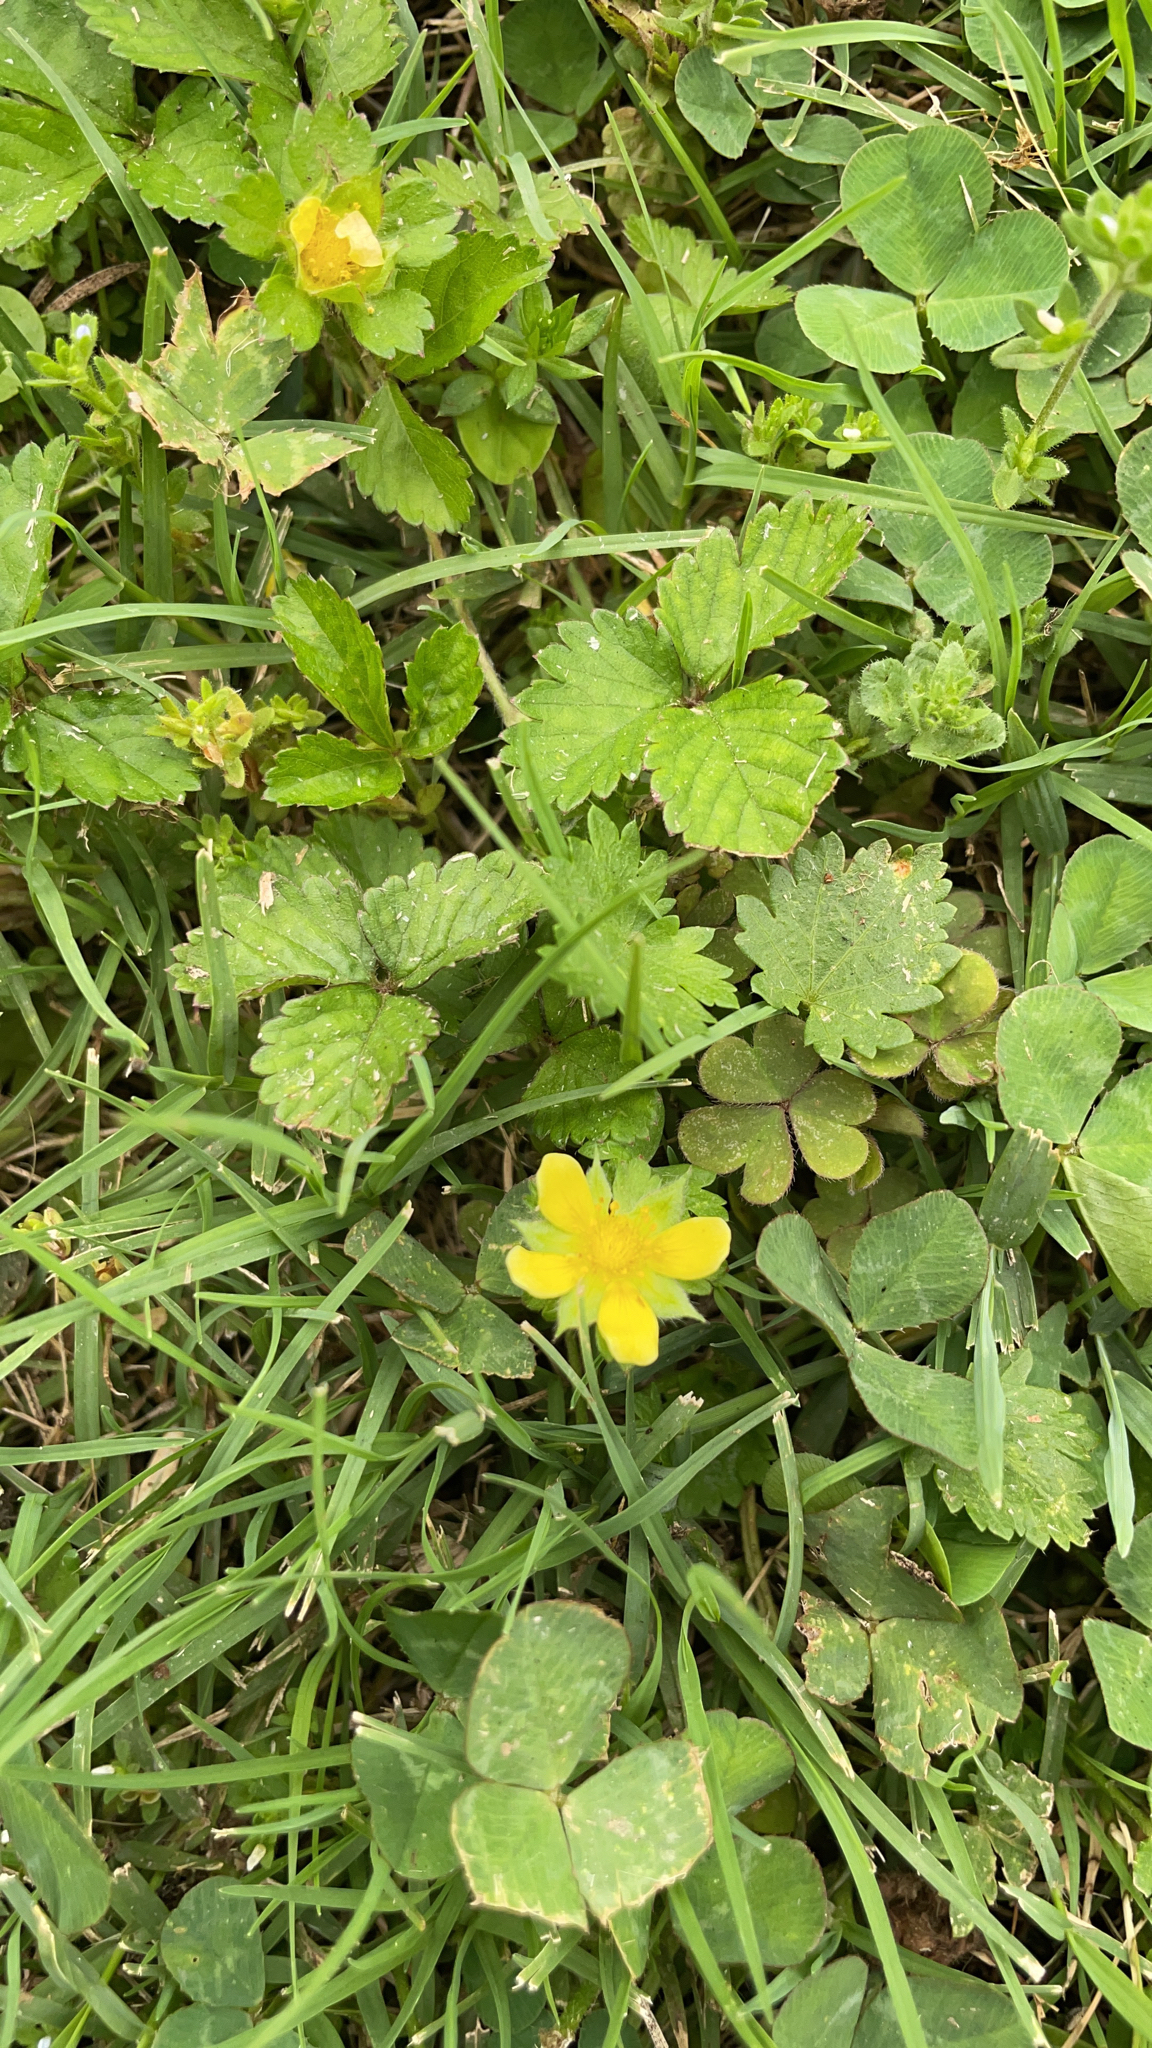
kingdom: Plantae
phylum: Tracheophyta
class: Magnoliopsida
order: Rosales
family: Rosaceae
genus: Potentilla
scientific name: Potentilla indica
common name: Yellow-flowered strawberry
